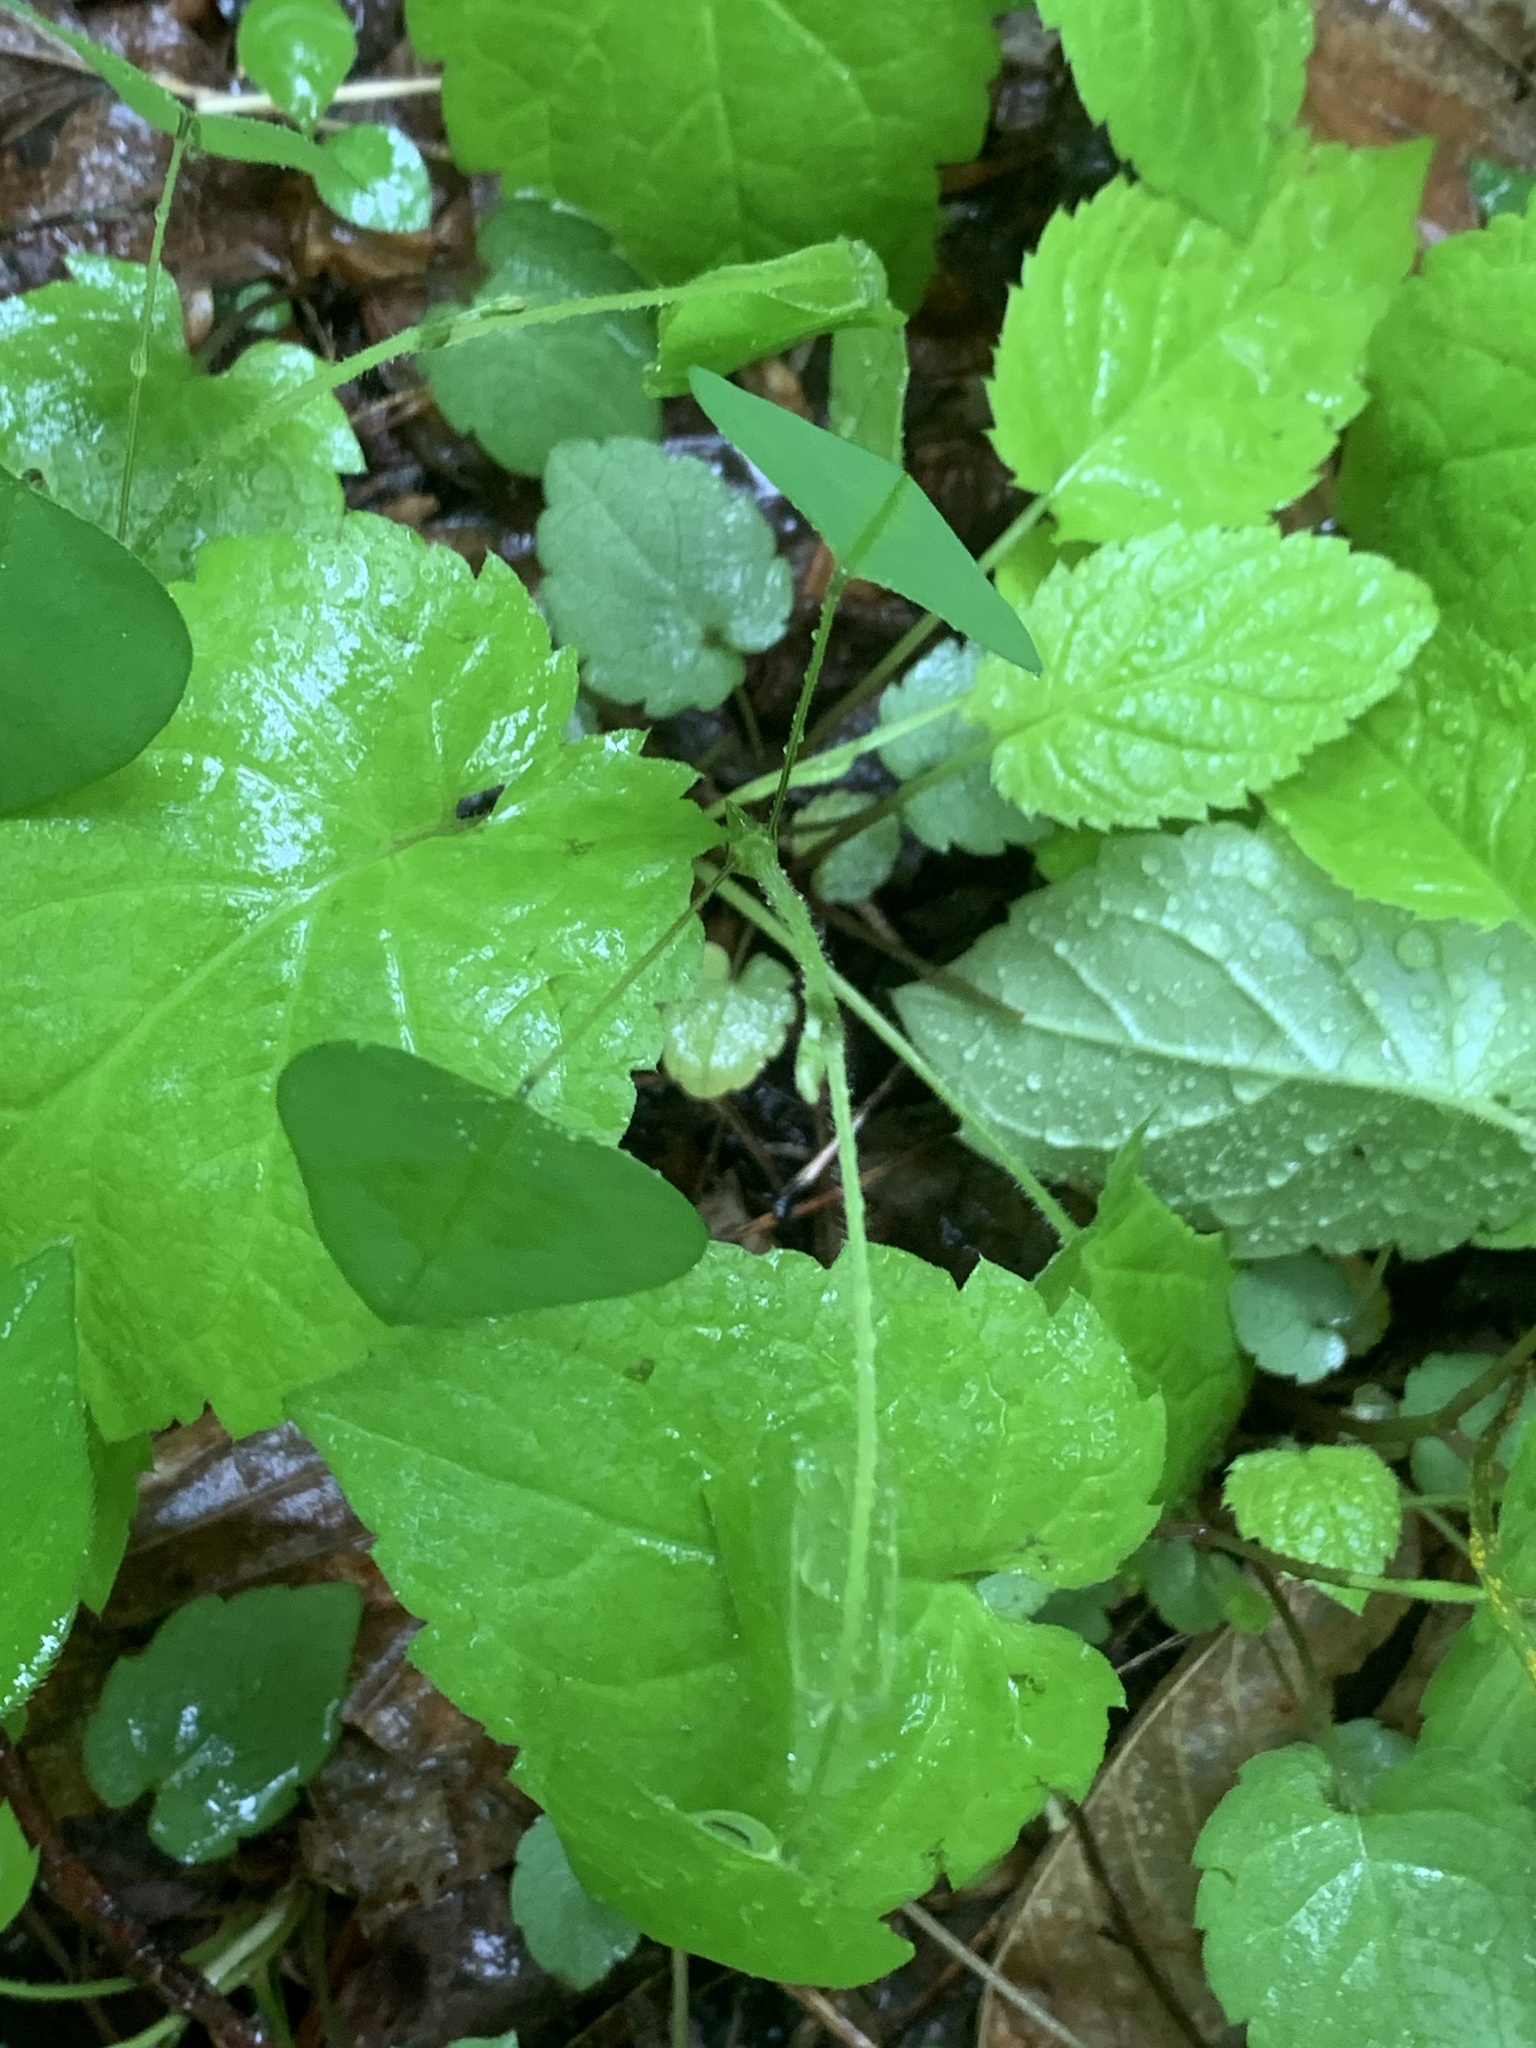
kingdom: Plantae
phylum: Tracheophyta
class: Magnoliopsida
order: Fabales
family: Fabaceae
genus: Amphicarpaea
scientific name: Amphicarpaea bracteata
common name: American hog peanut
